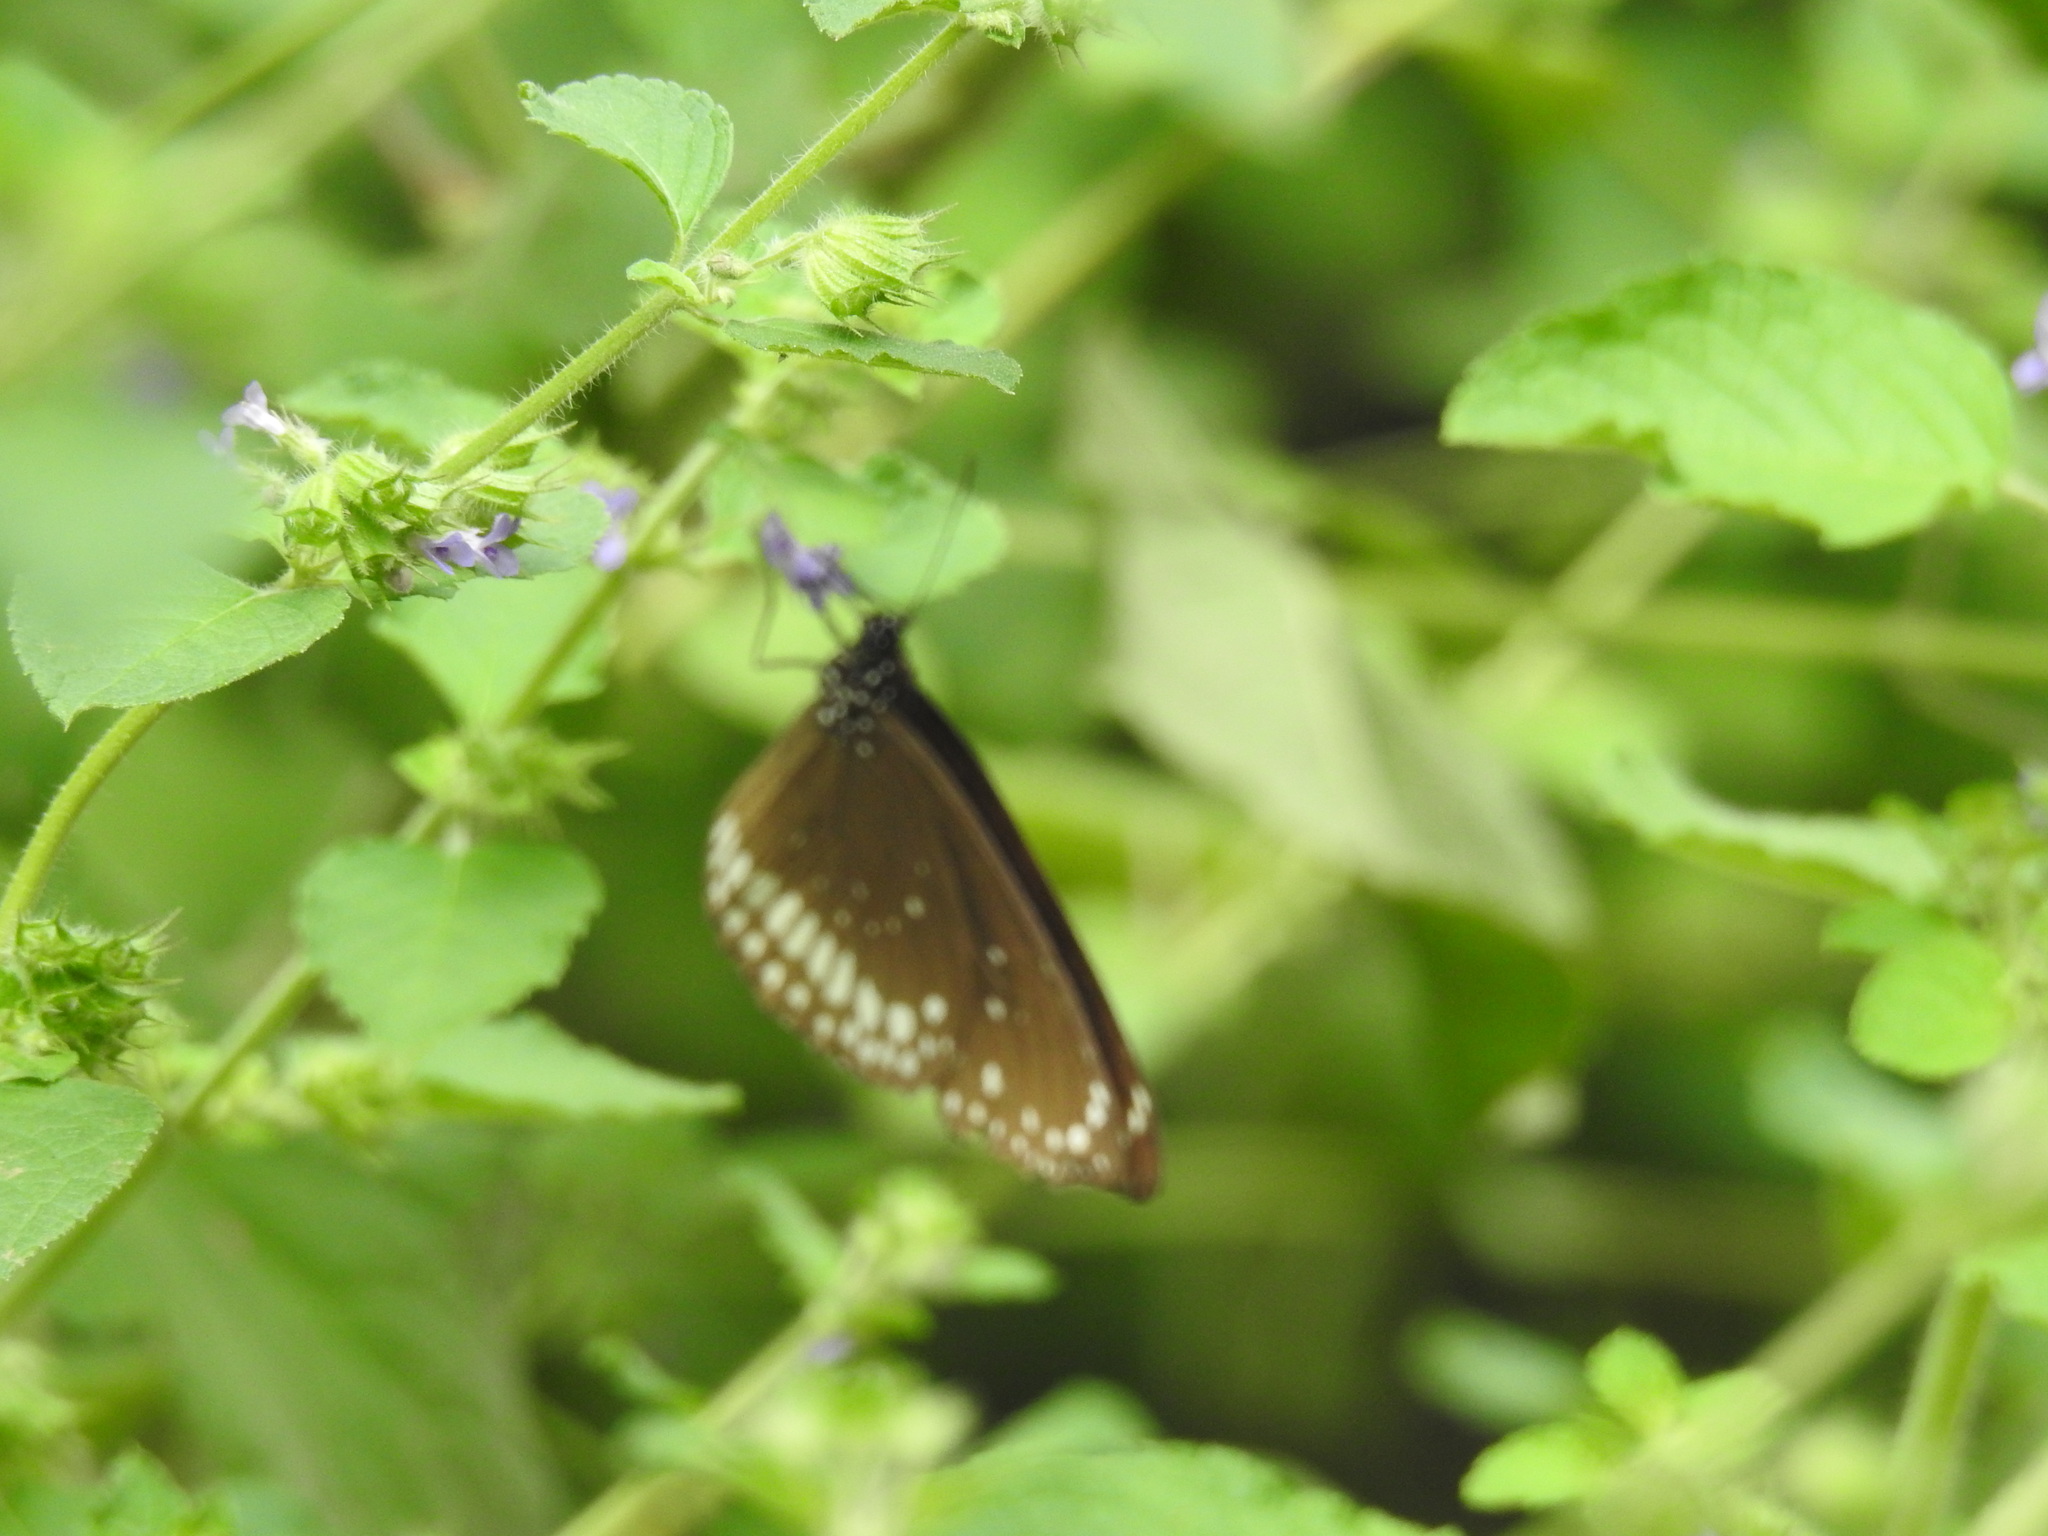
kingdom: Animalia
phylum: Arthropoda
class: Insecta
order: Lepidoptera
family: Nymphalidae
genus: Euploea
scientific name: Euploea core
